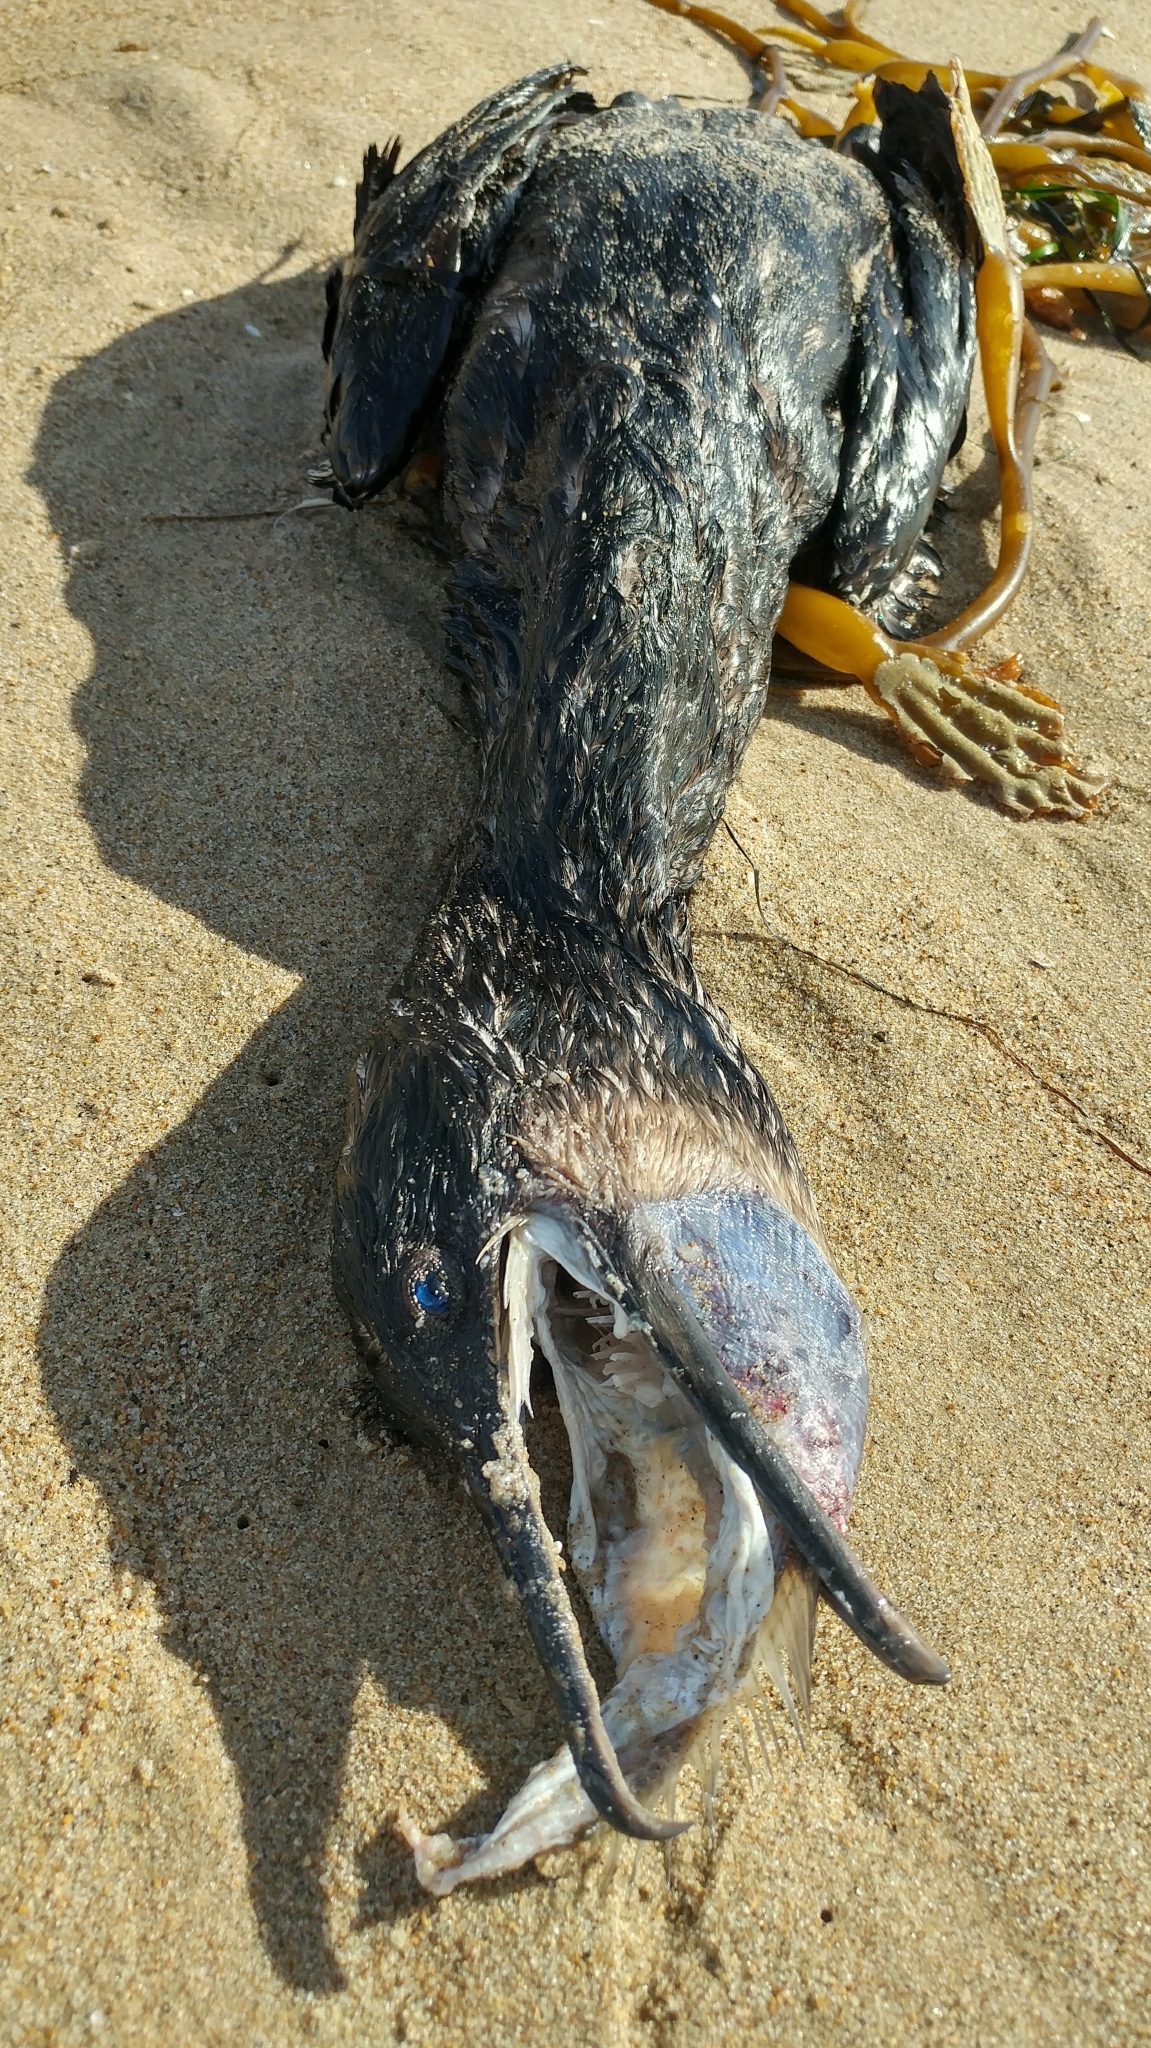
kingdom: Animalia
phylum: Chordata
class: Aves
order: Suliformes
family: Phalacrocoracidae
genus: Urile
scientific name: Urile penicillatus
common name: Brandt's cormorant
